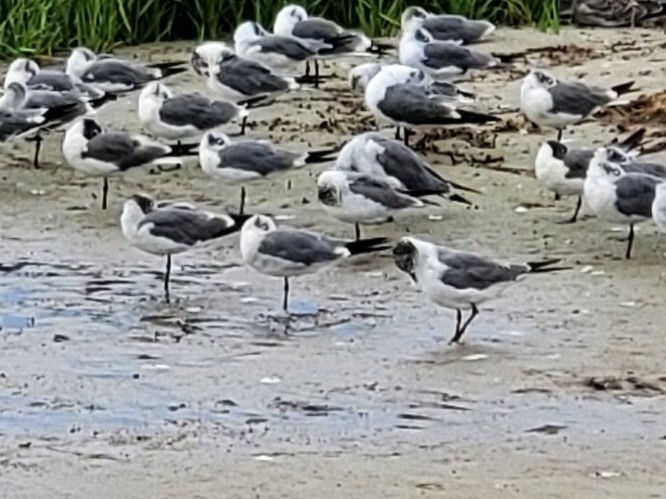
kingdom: Animalia
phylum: Chordata
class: Aves
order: Charadriiformes
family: Laridae
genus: Leucophaeus
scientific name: Leucophaeus atricilla
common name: Laughing gull
